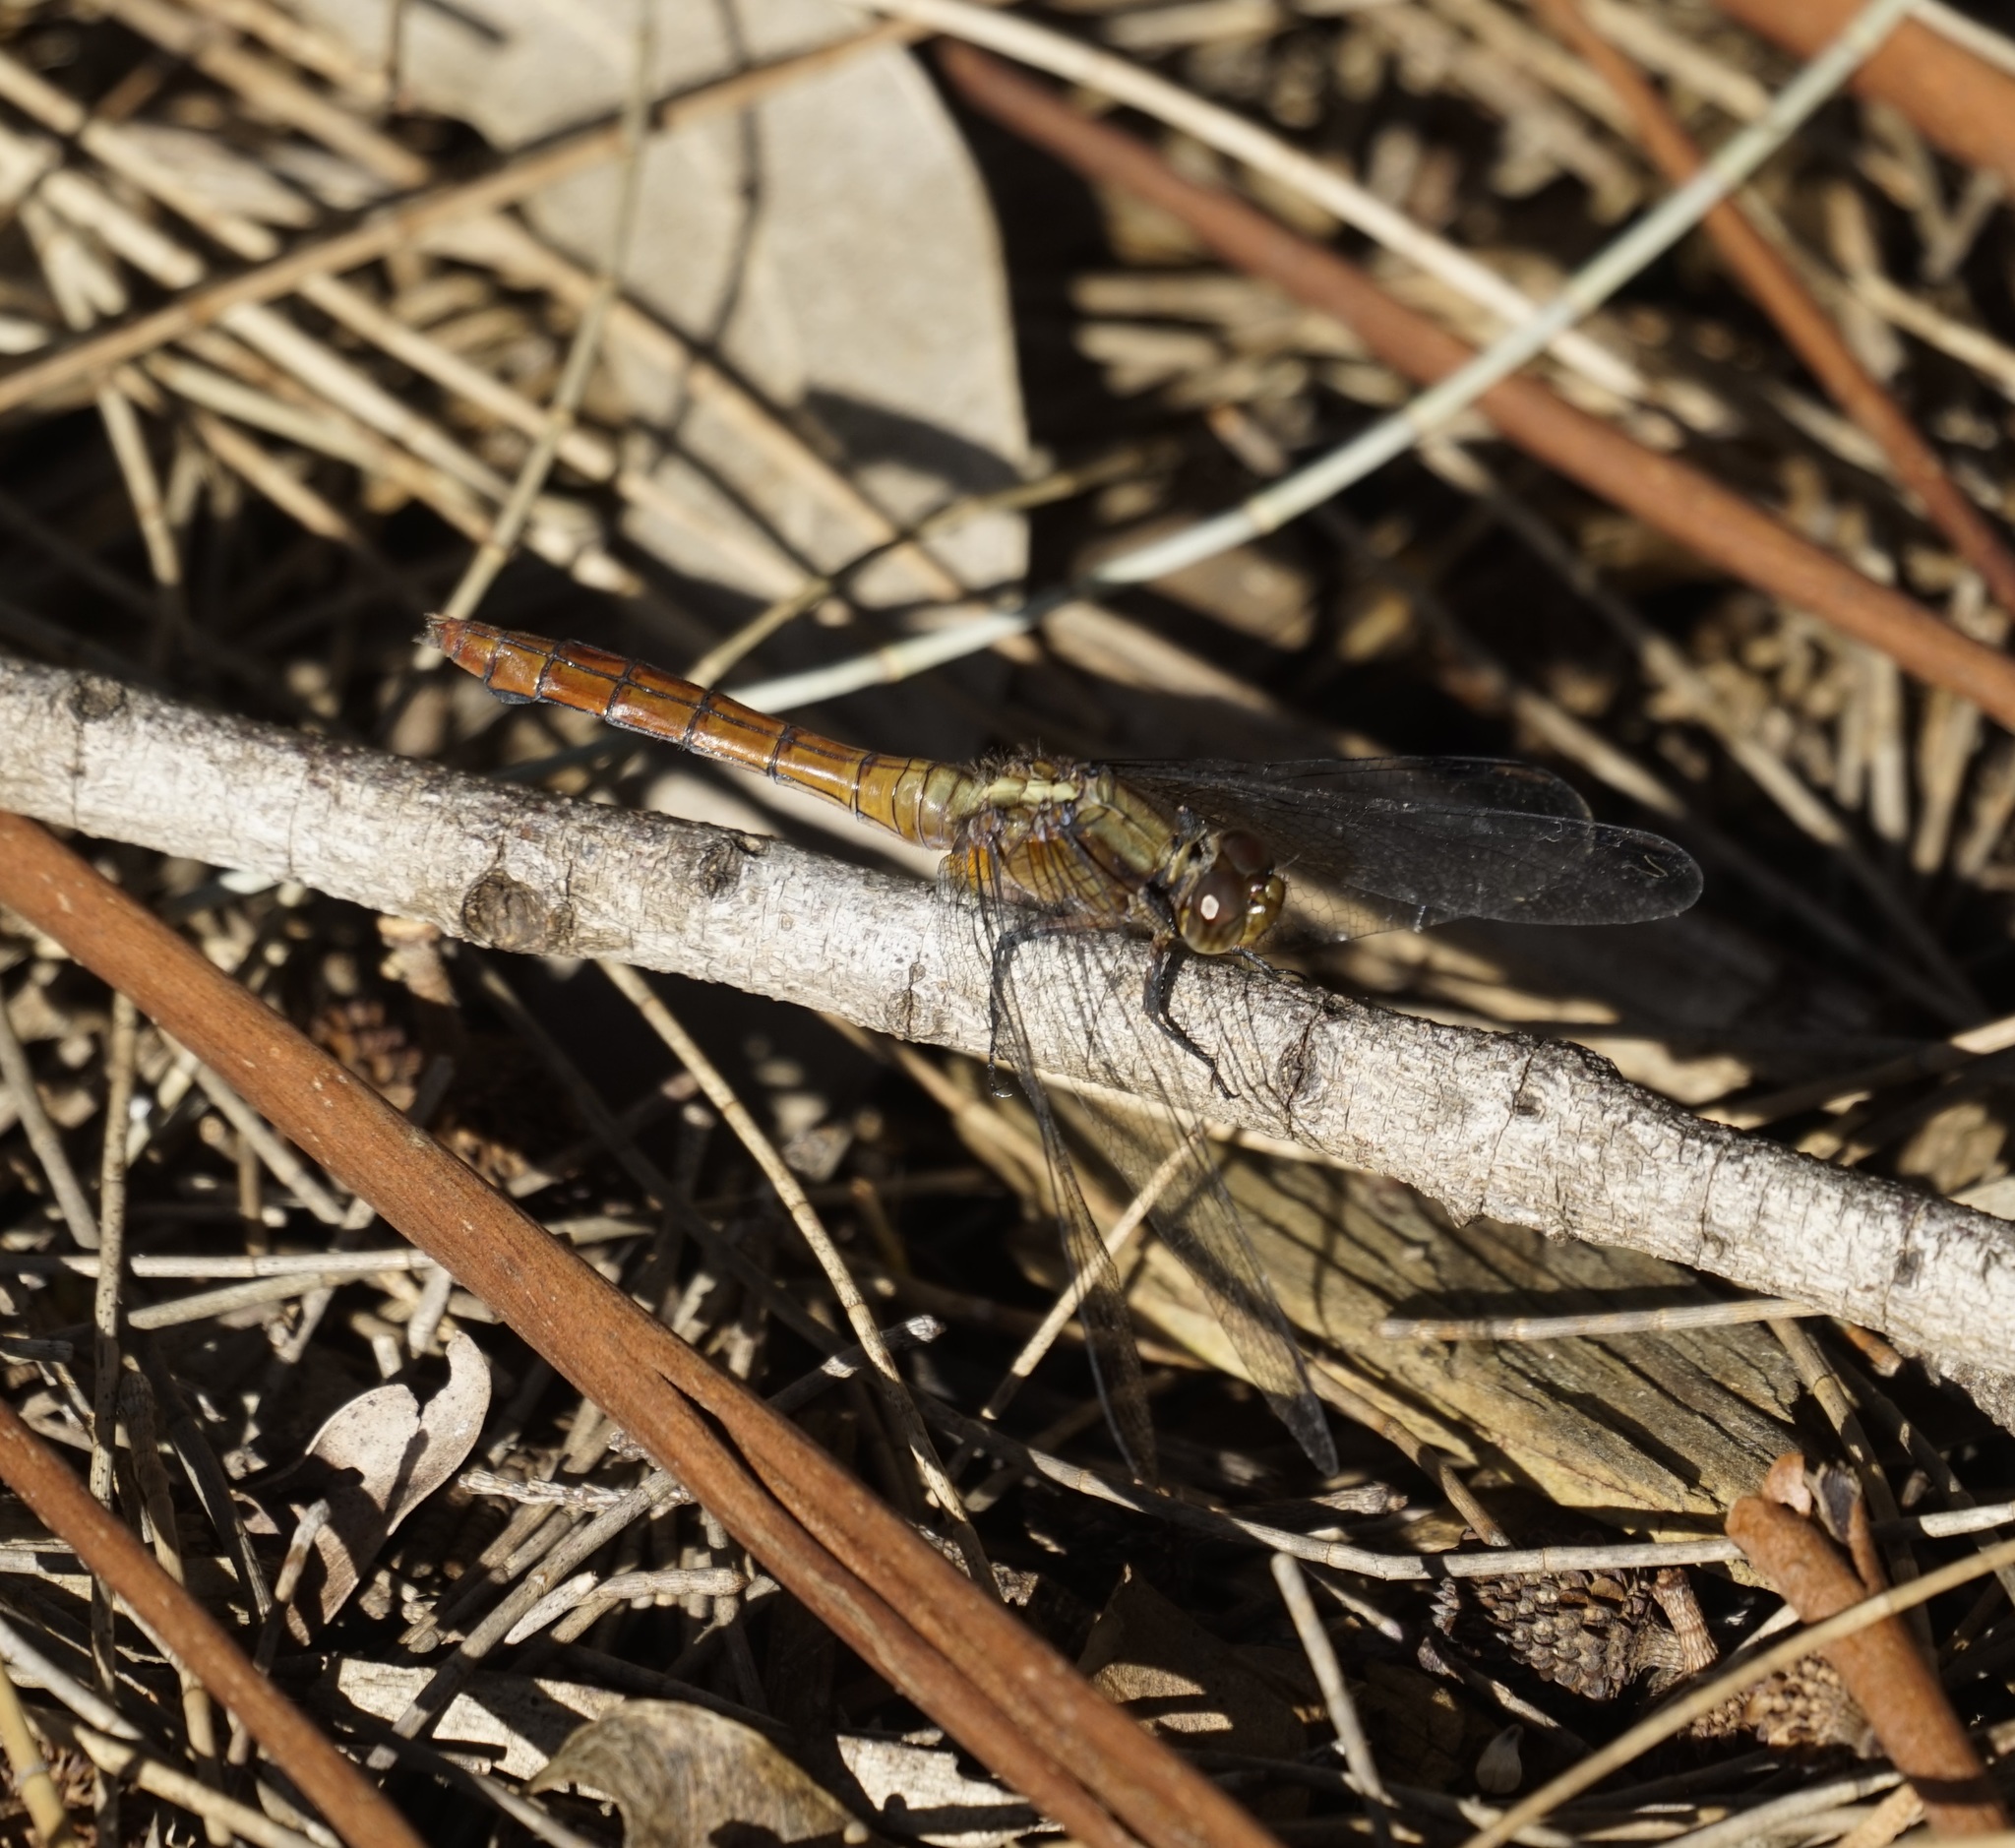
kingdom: Animalia
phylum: Arthropoda
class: Insecta
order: Odonata
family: Libellulidae
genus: Orthetrum
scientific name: Orthetrum villosovittatum
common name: Firery skimmer
